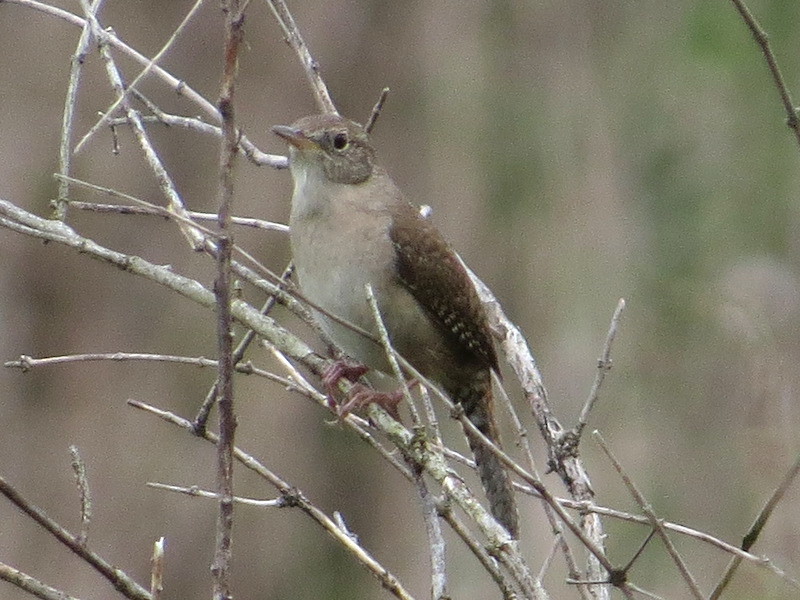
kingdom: Animalia
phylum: Chordata
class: Aves
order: Passeriformes
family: Troglodytidae
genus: Troglodytes
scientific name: Troglodytes aedon
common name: House wren
